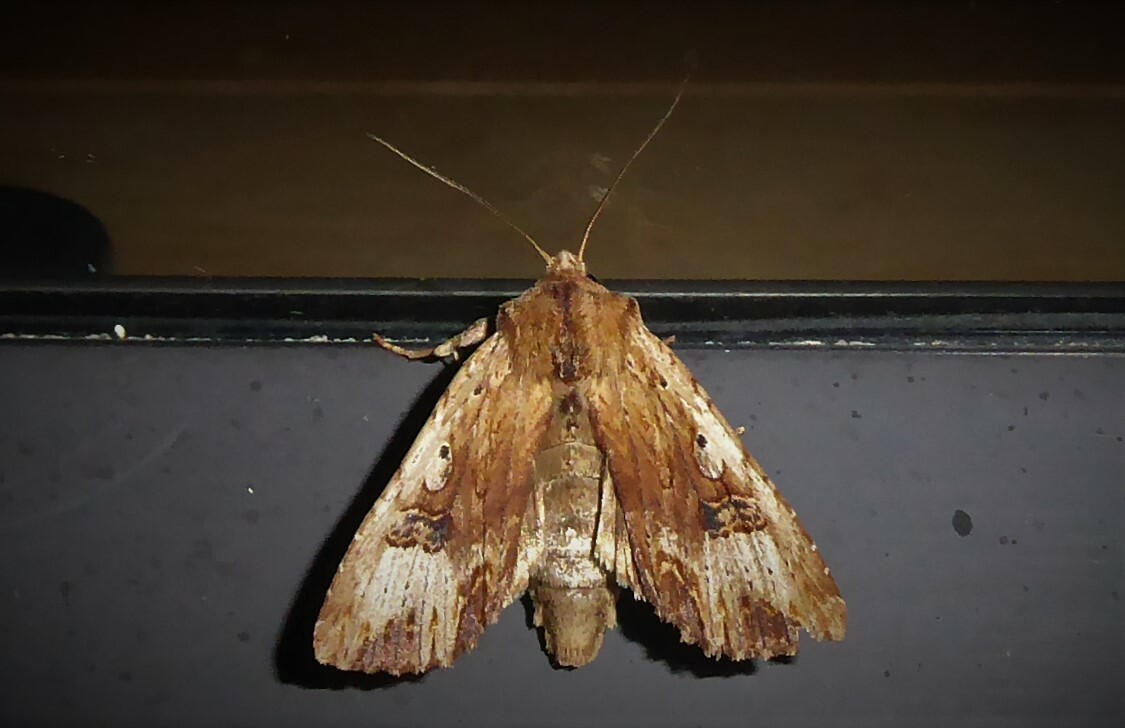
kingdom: Animalia
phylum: Arthropoda
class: Insecta
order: Lepidoptera
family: Noctuidae
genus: Ichneutica
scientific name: Ichneutica
